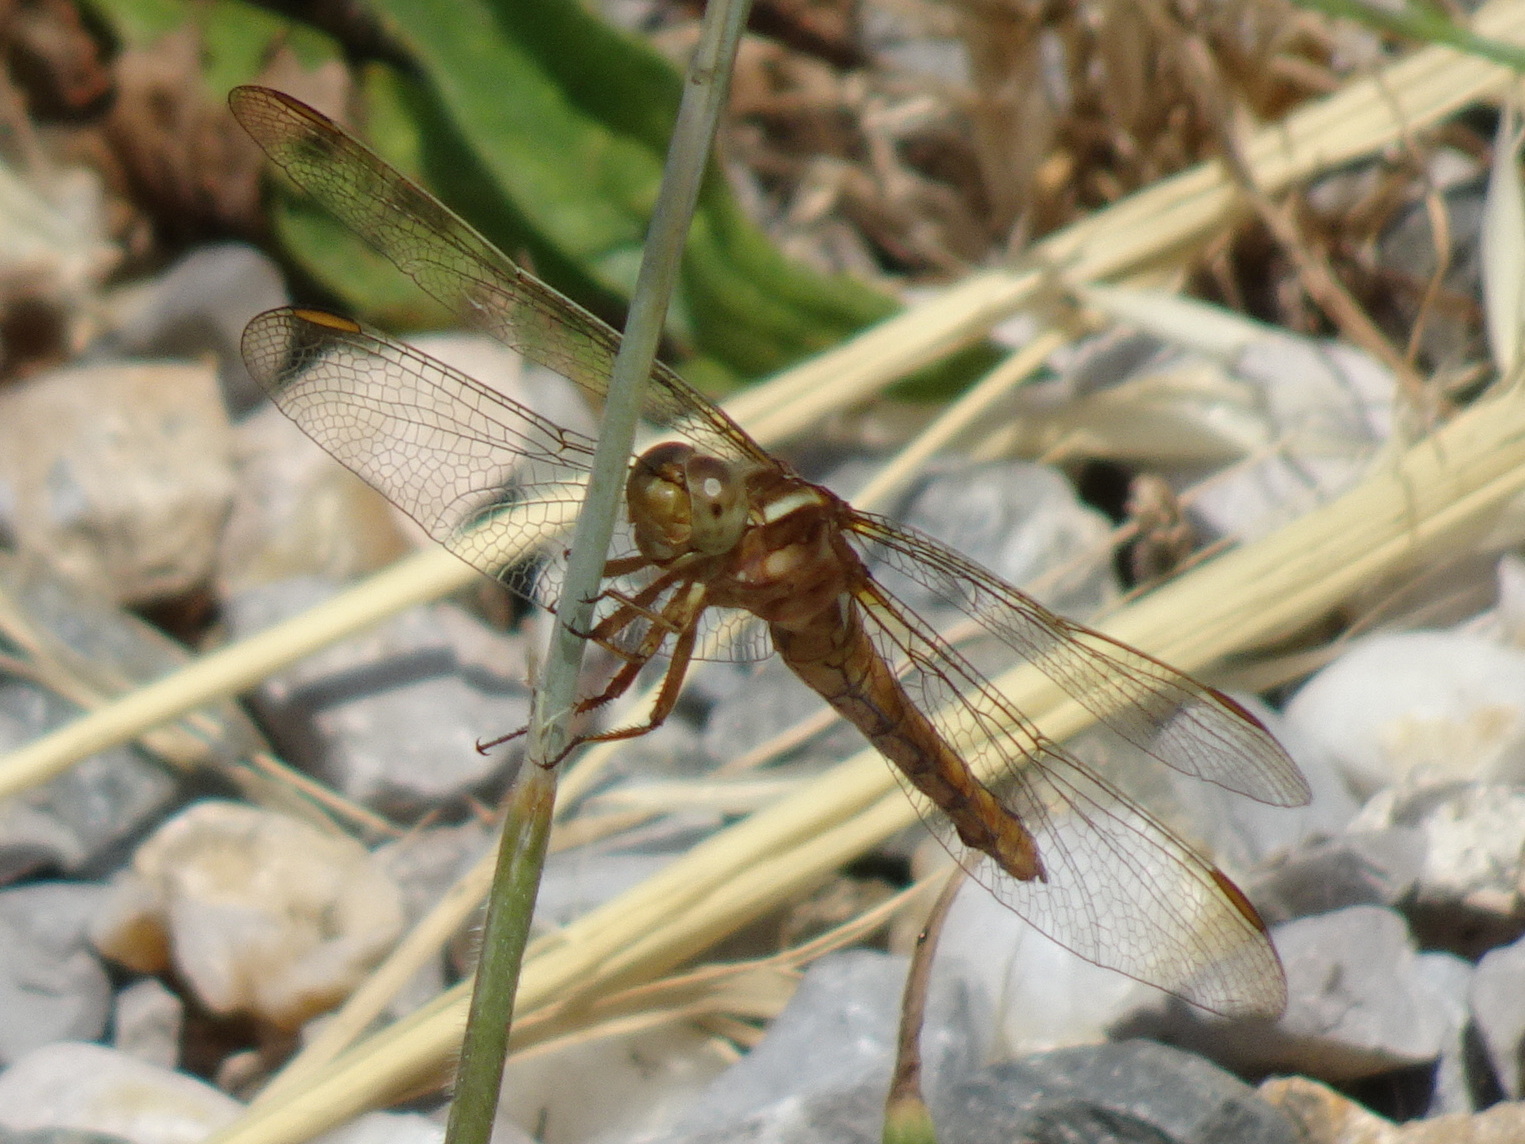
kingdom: Animalia
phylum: Arthropoda
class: Insecta
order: Odonata
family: Libellulidae
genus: Orthetrum
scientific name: Orthetrum coerulescens
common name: Keeled skimmer
